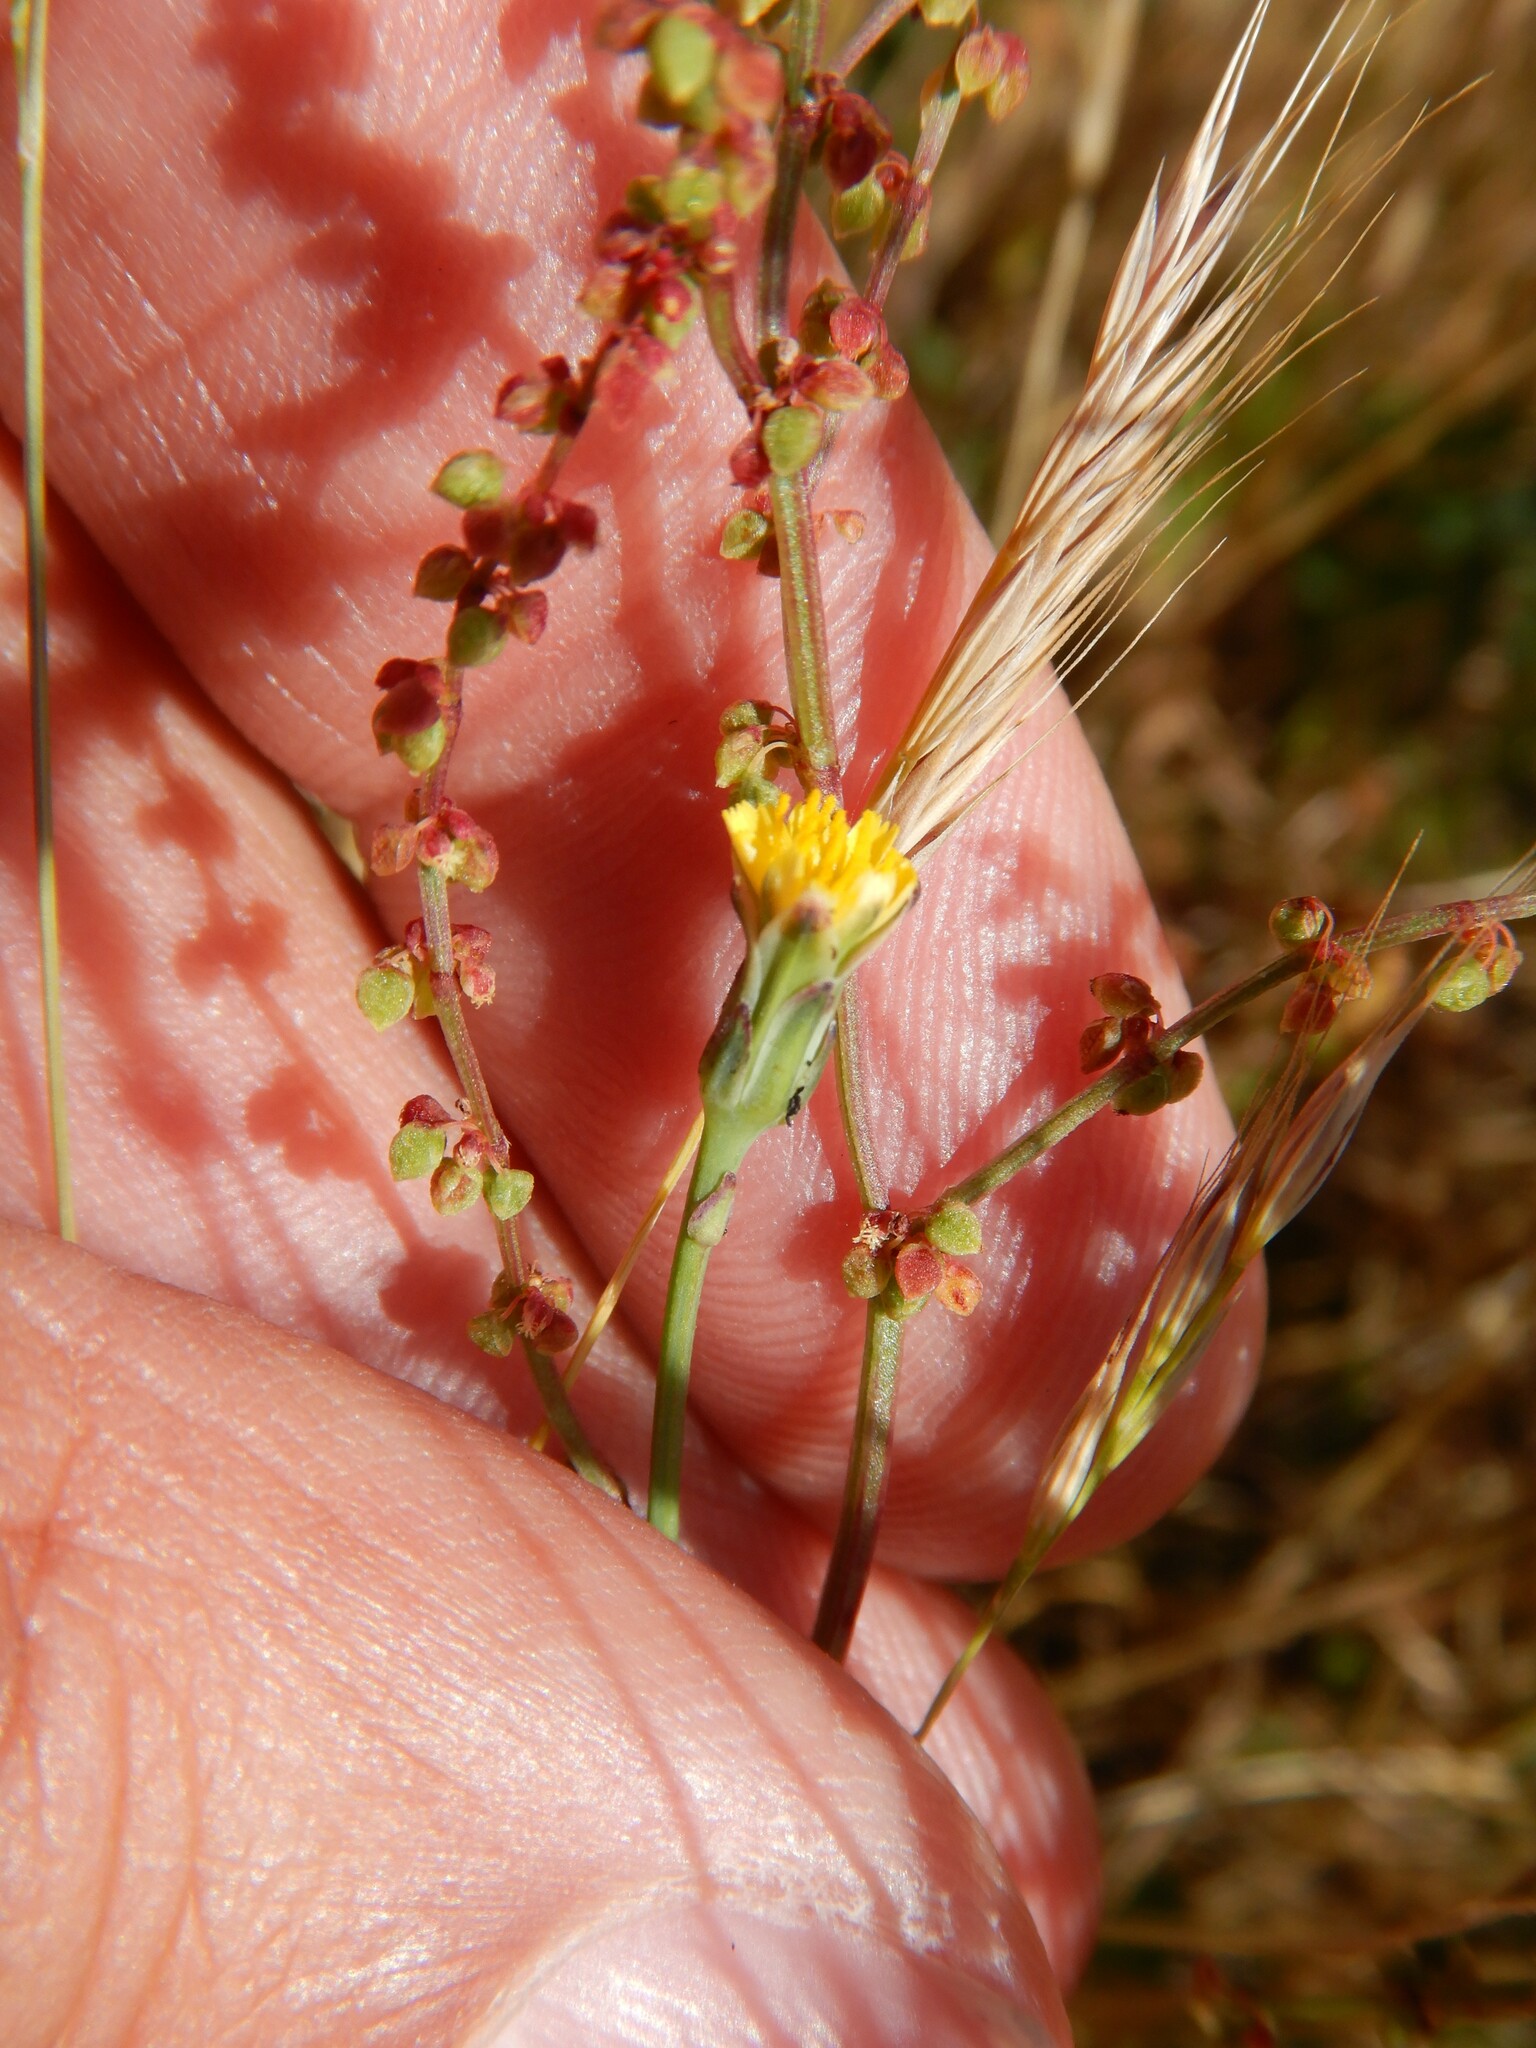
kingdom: Plantae
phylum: Tracheophyta
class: Magnoliopsida
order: Caryophyllales
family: Polygonaceae
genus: Rumex
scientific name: Rumex acetosella
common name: Common sheep sorrel
